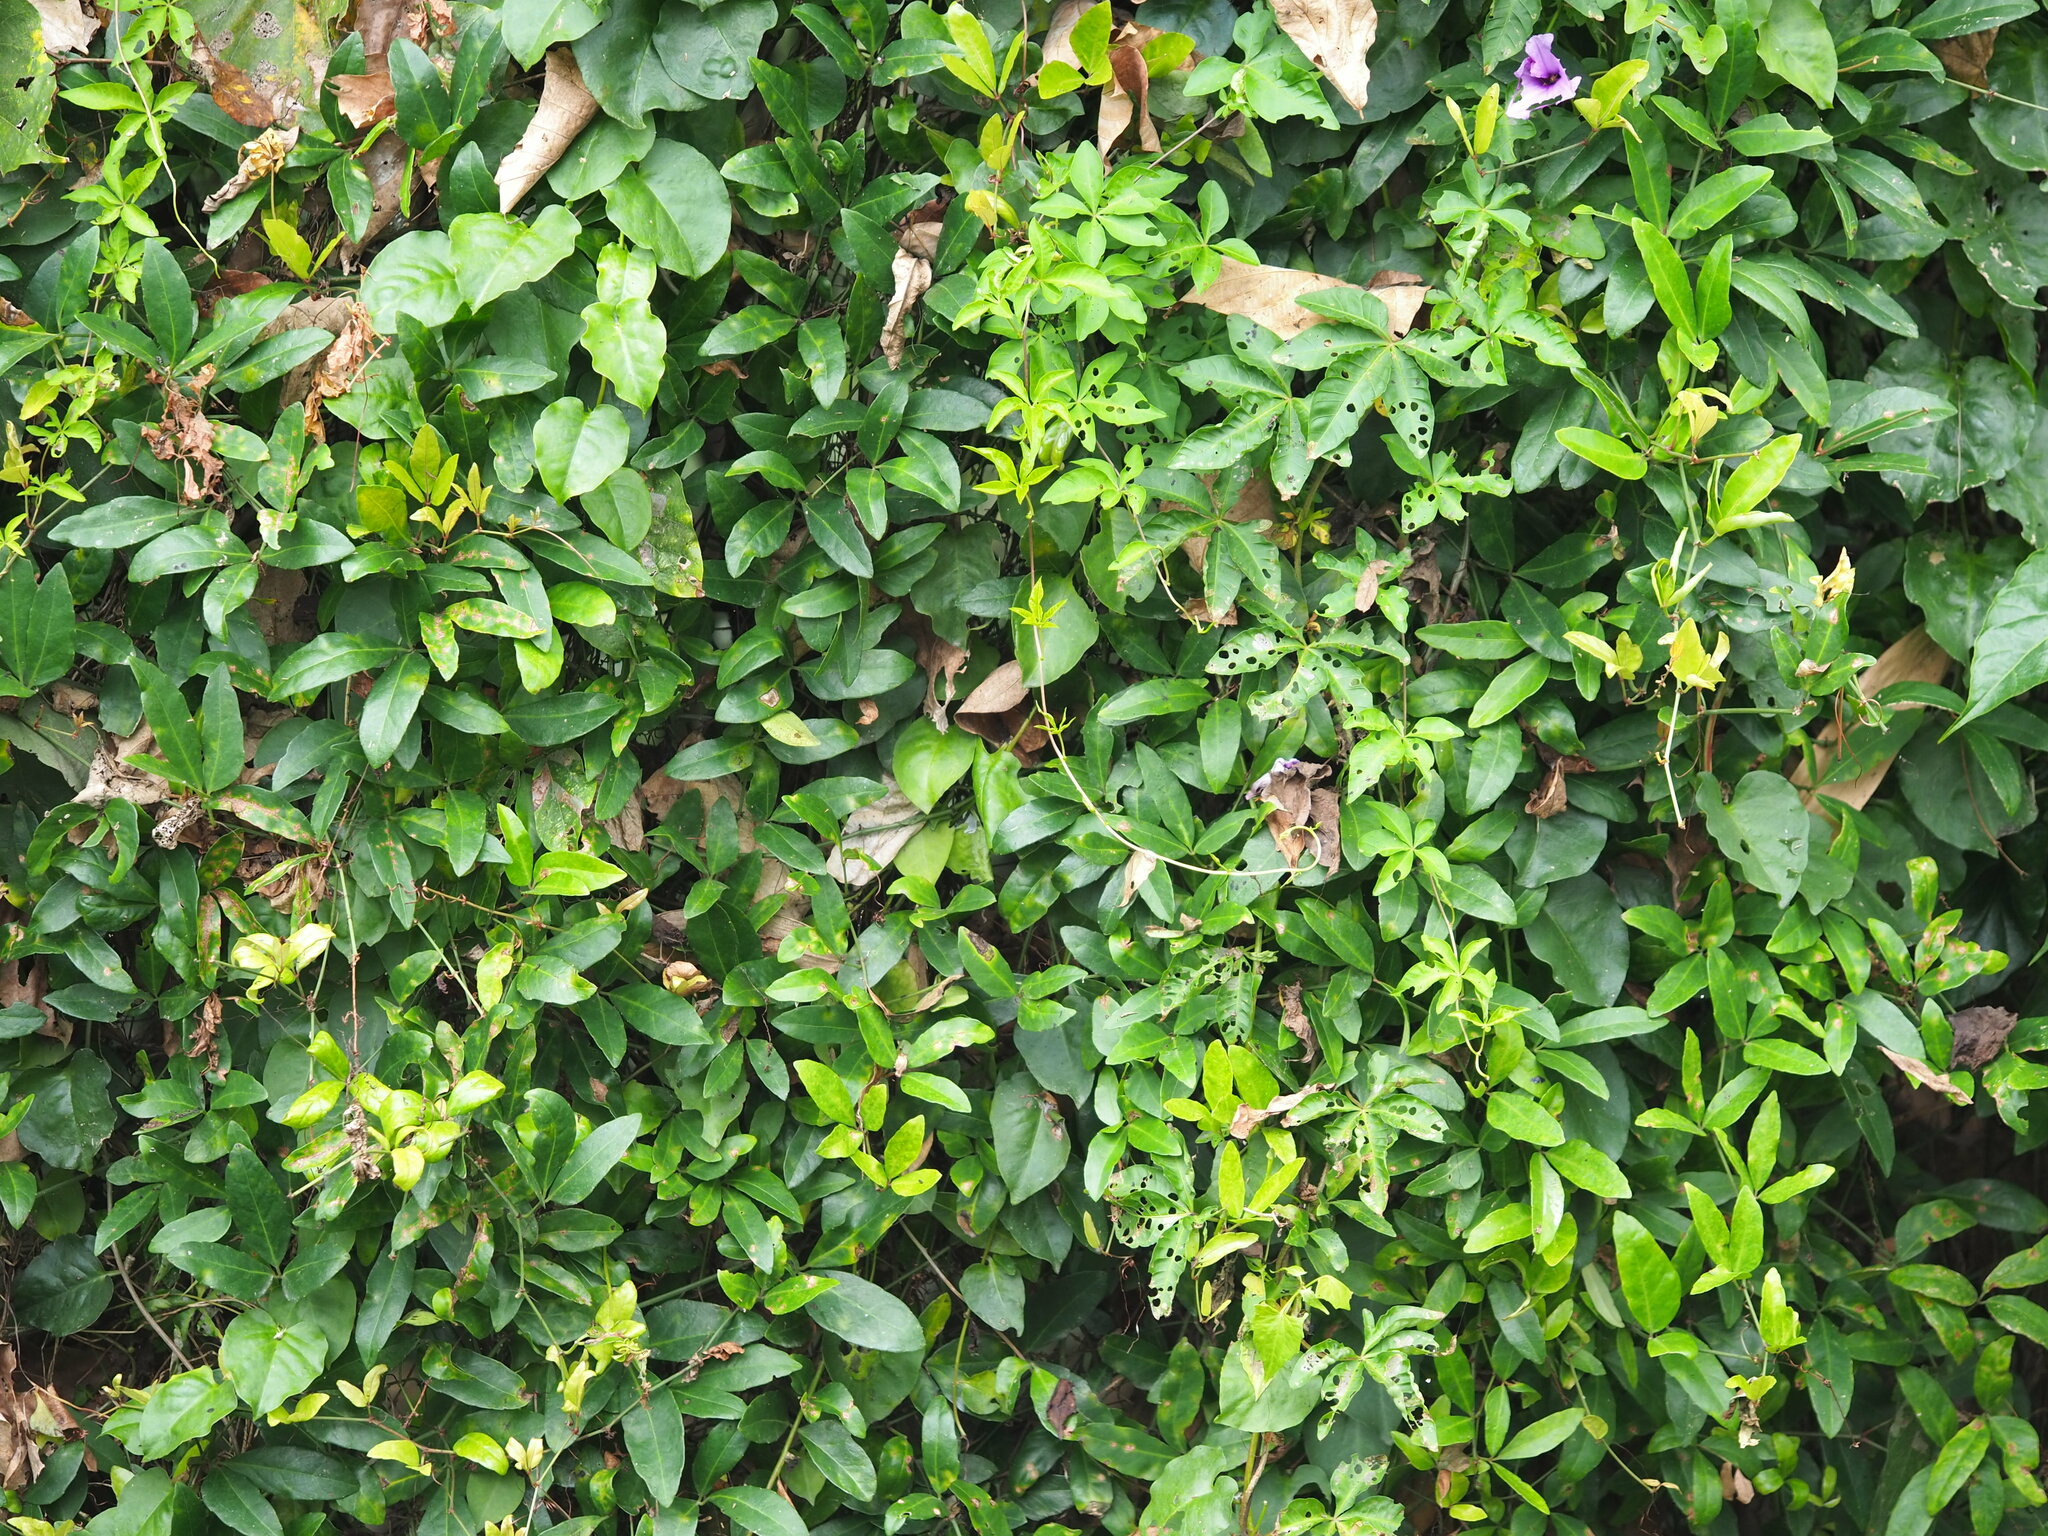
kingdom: Plantae
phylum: Tracheophyta
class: Magnoliopsida
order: Vitales
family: Vitaceae
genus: Tetrastigma
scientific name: Tetrastigma formosanum
